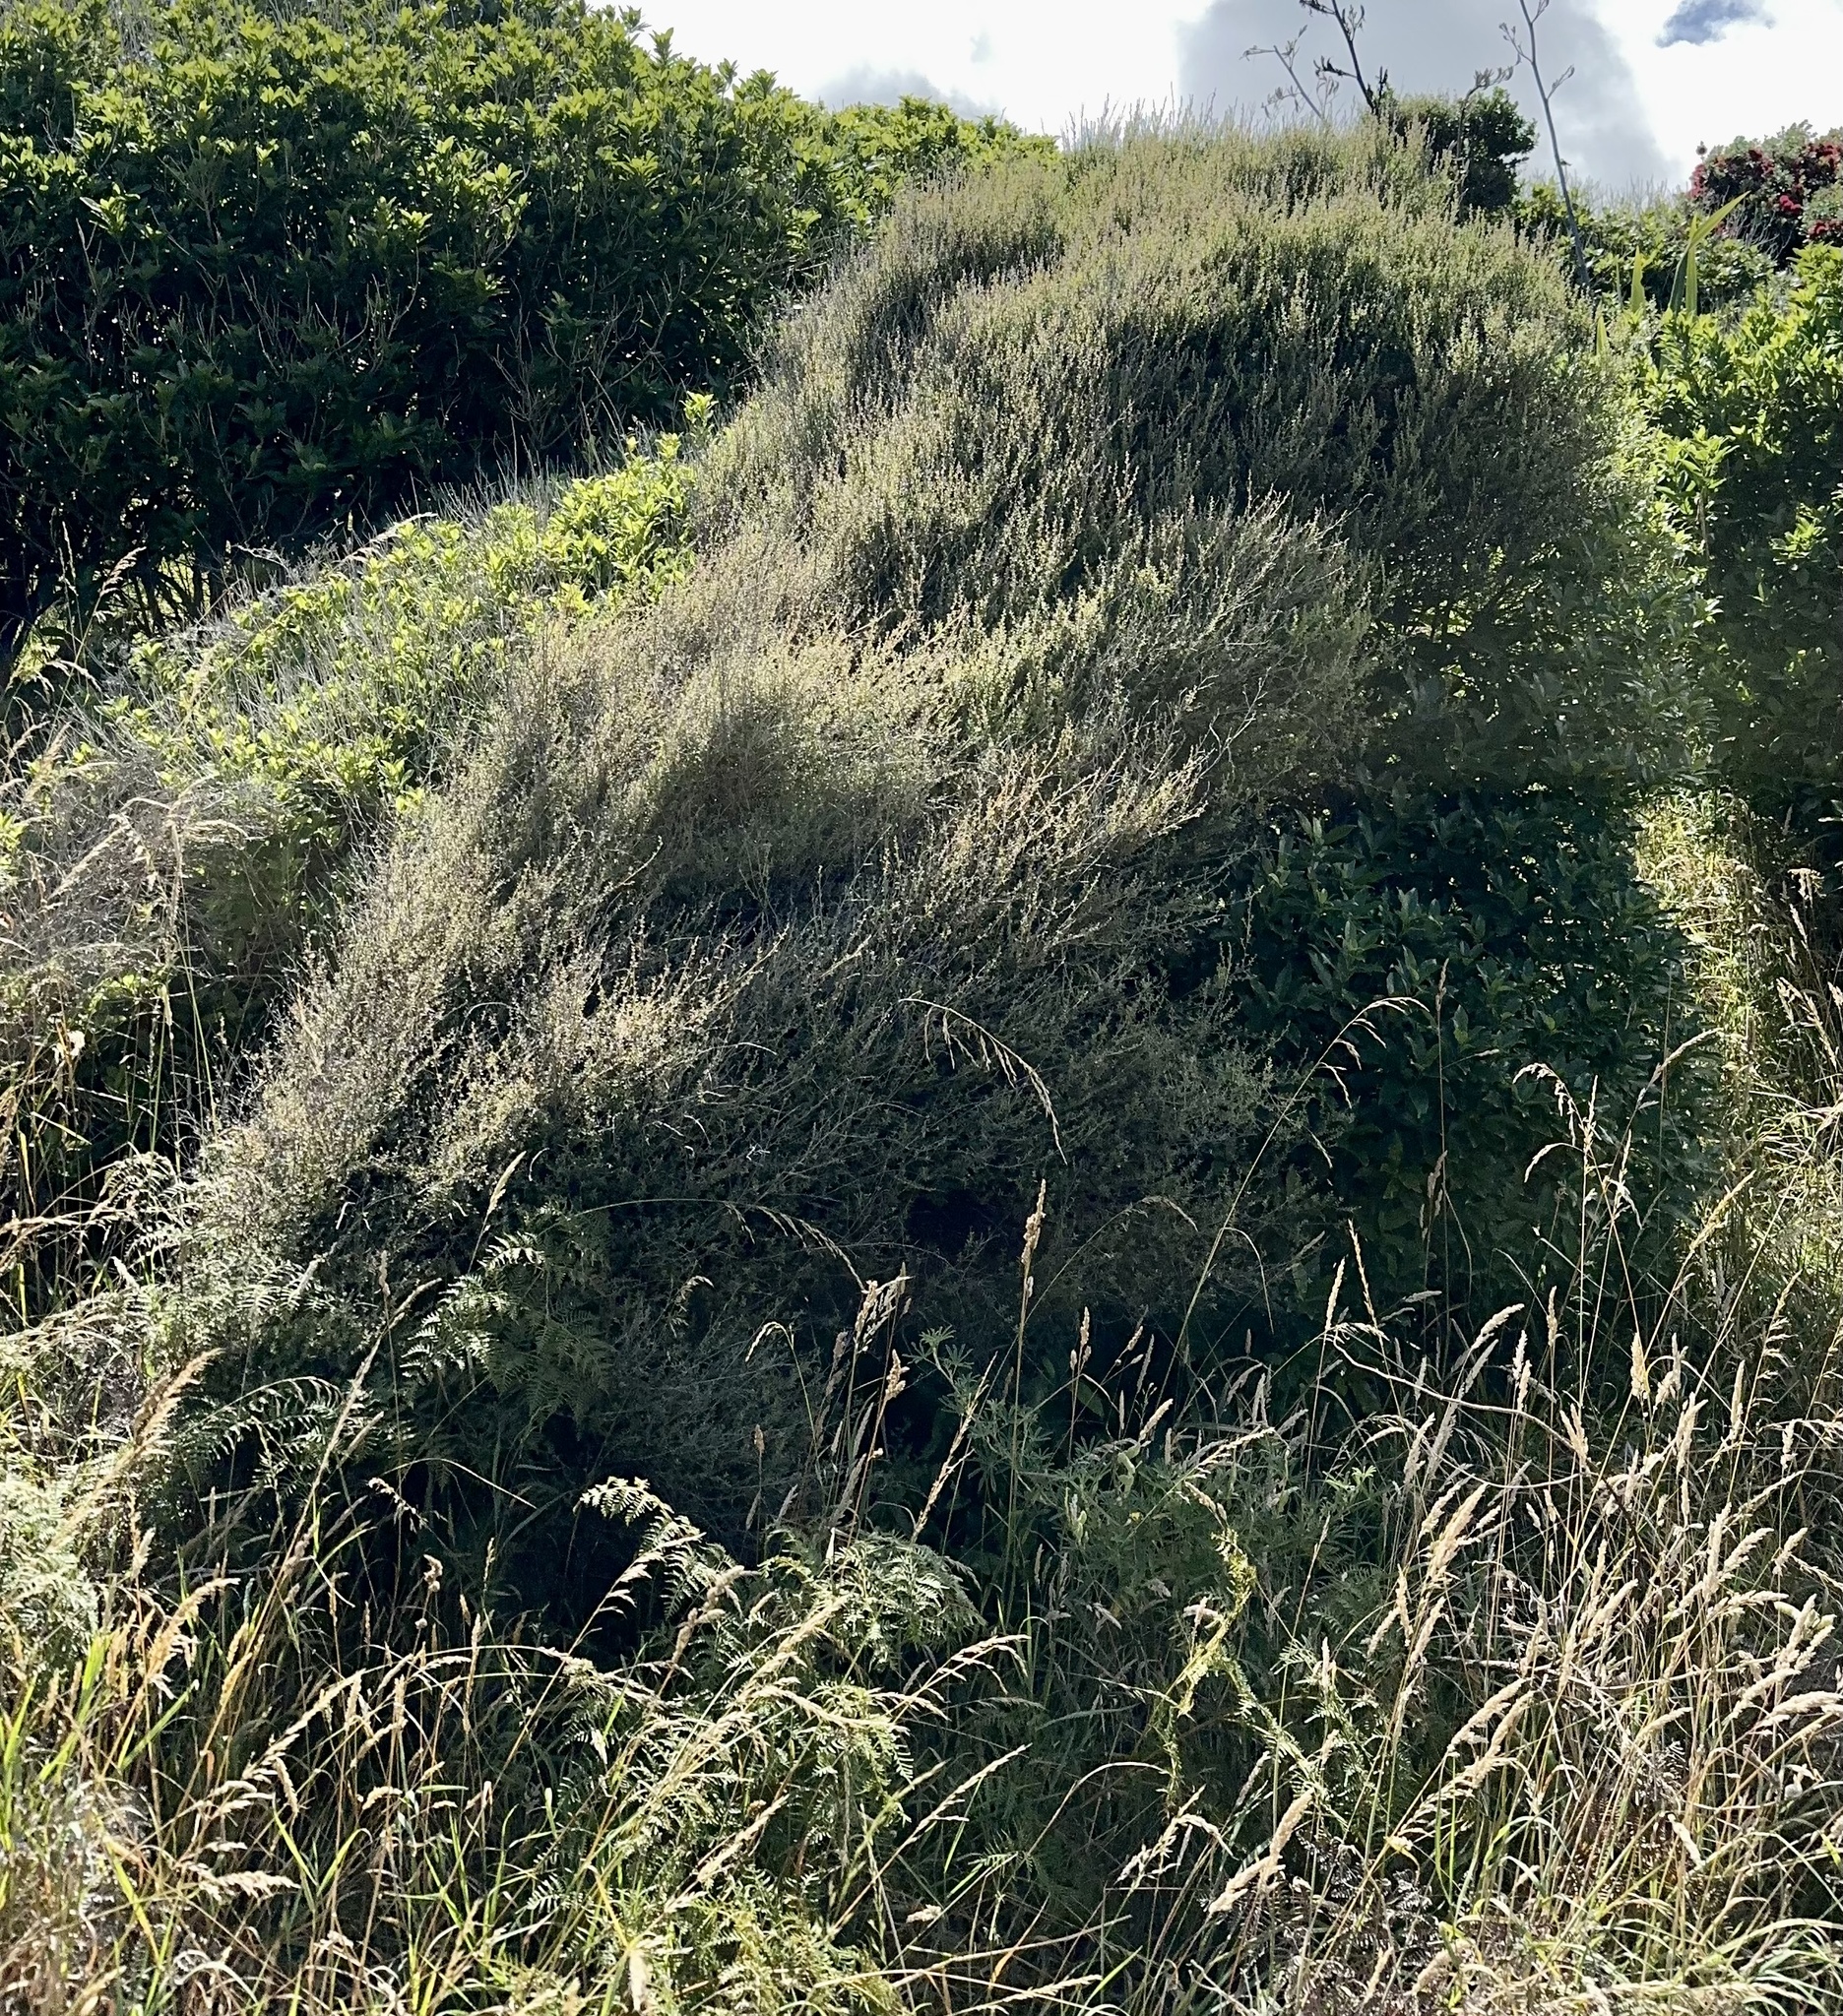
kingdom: Plantae
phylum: Tracheophyta
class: Magnoliopsida
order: Myrtales
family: Myrtaceae
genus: Kunzea
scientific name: Kunzea robusta
